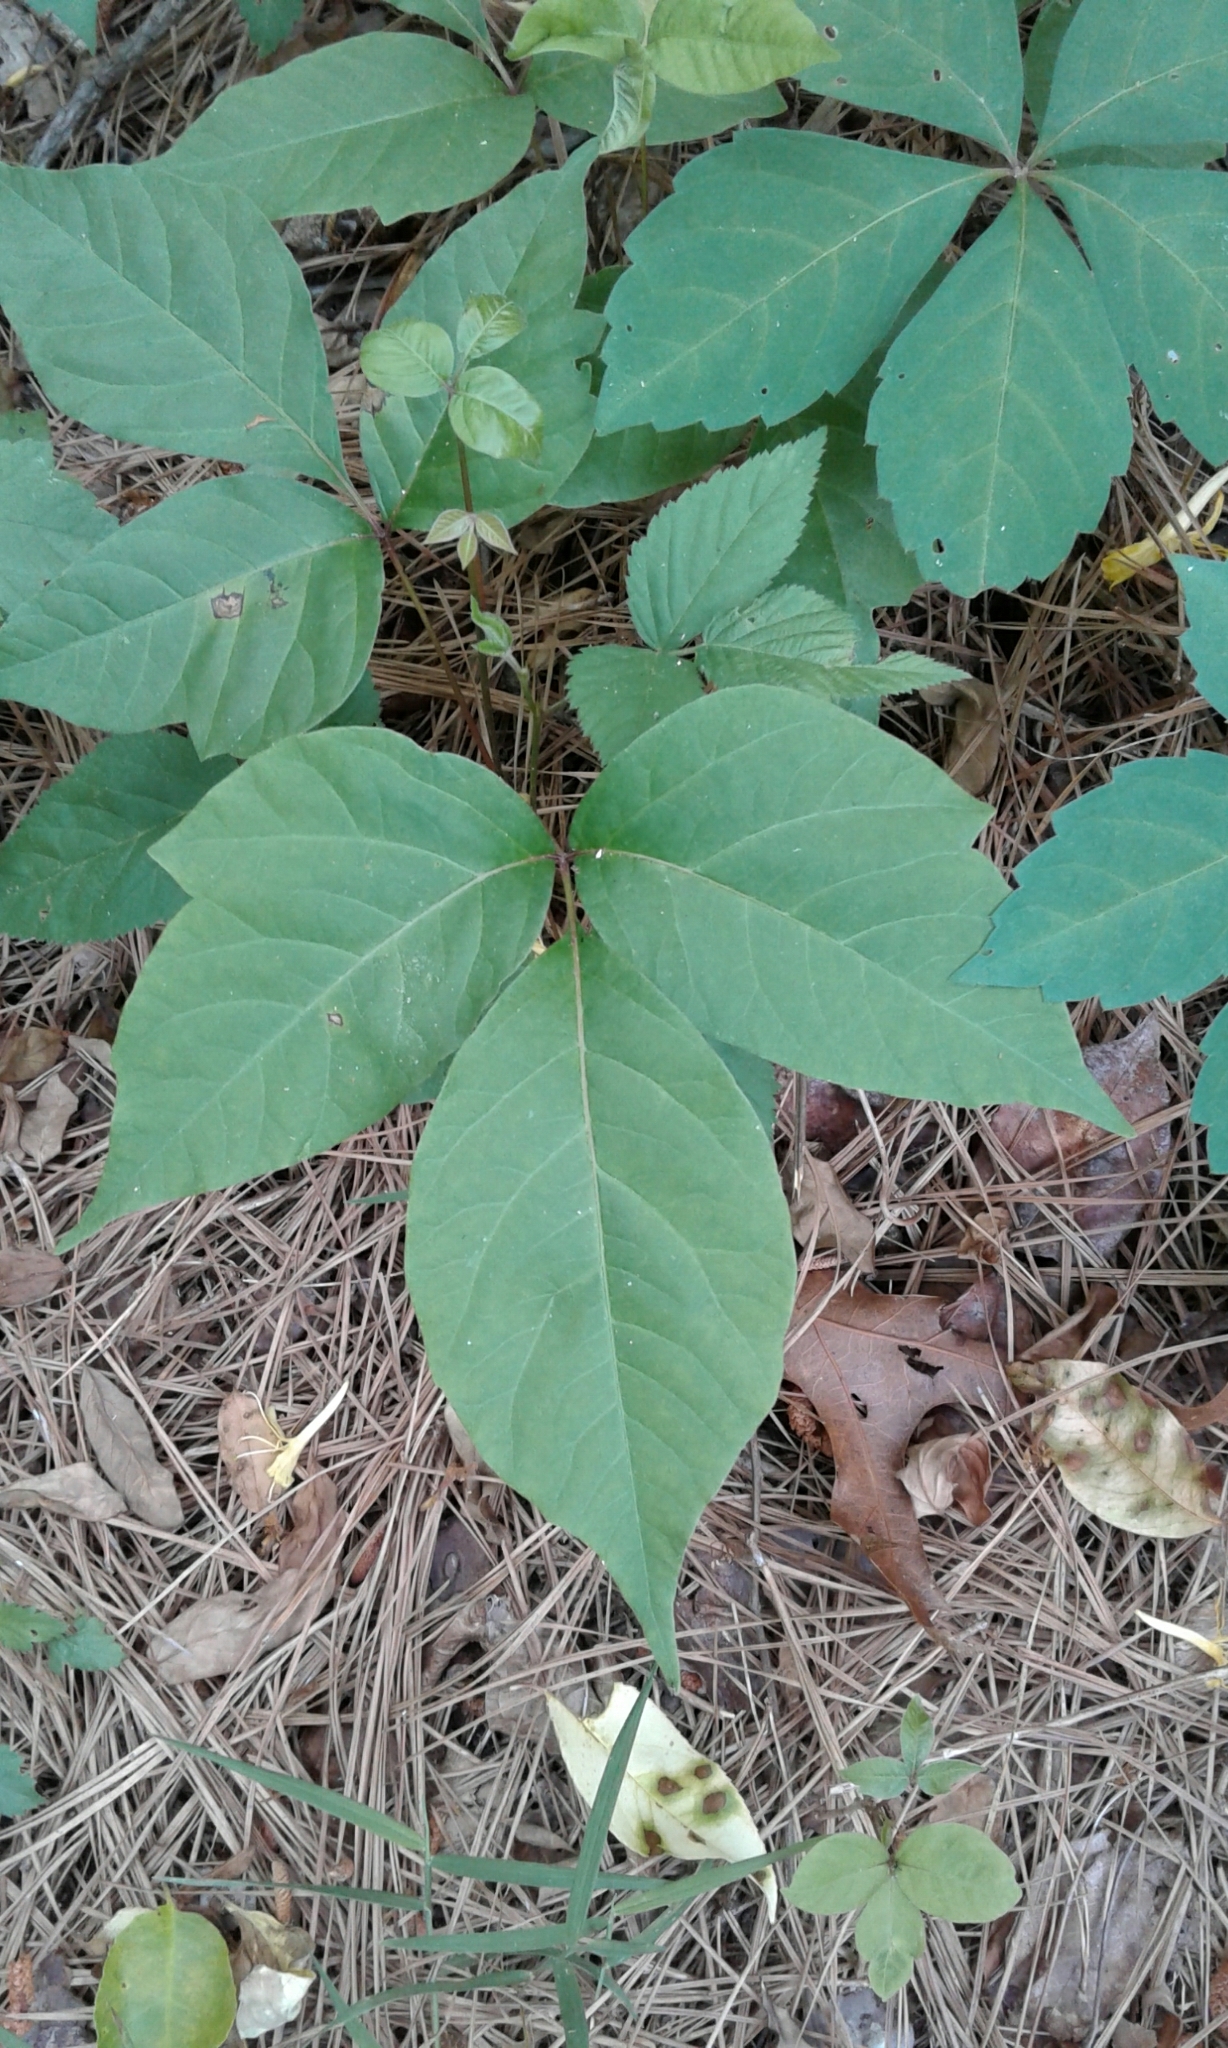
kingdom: Plantae
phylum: Tracheophyta
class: Magnoliopsida
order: Sapindales
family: Anacardiaceae
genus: Toxicodendron
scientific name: Toxicodendron radicans
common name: Poison ivy
